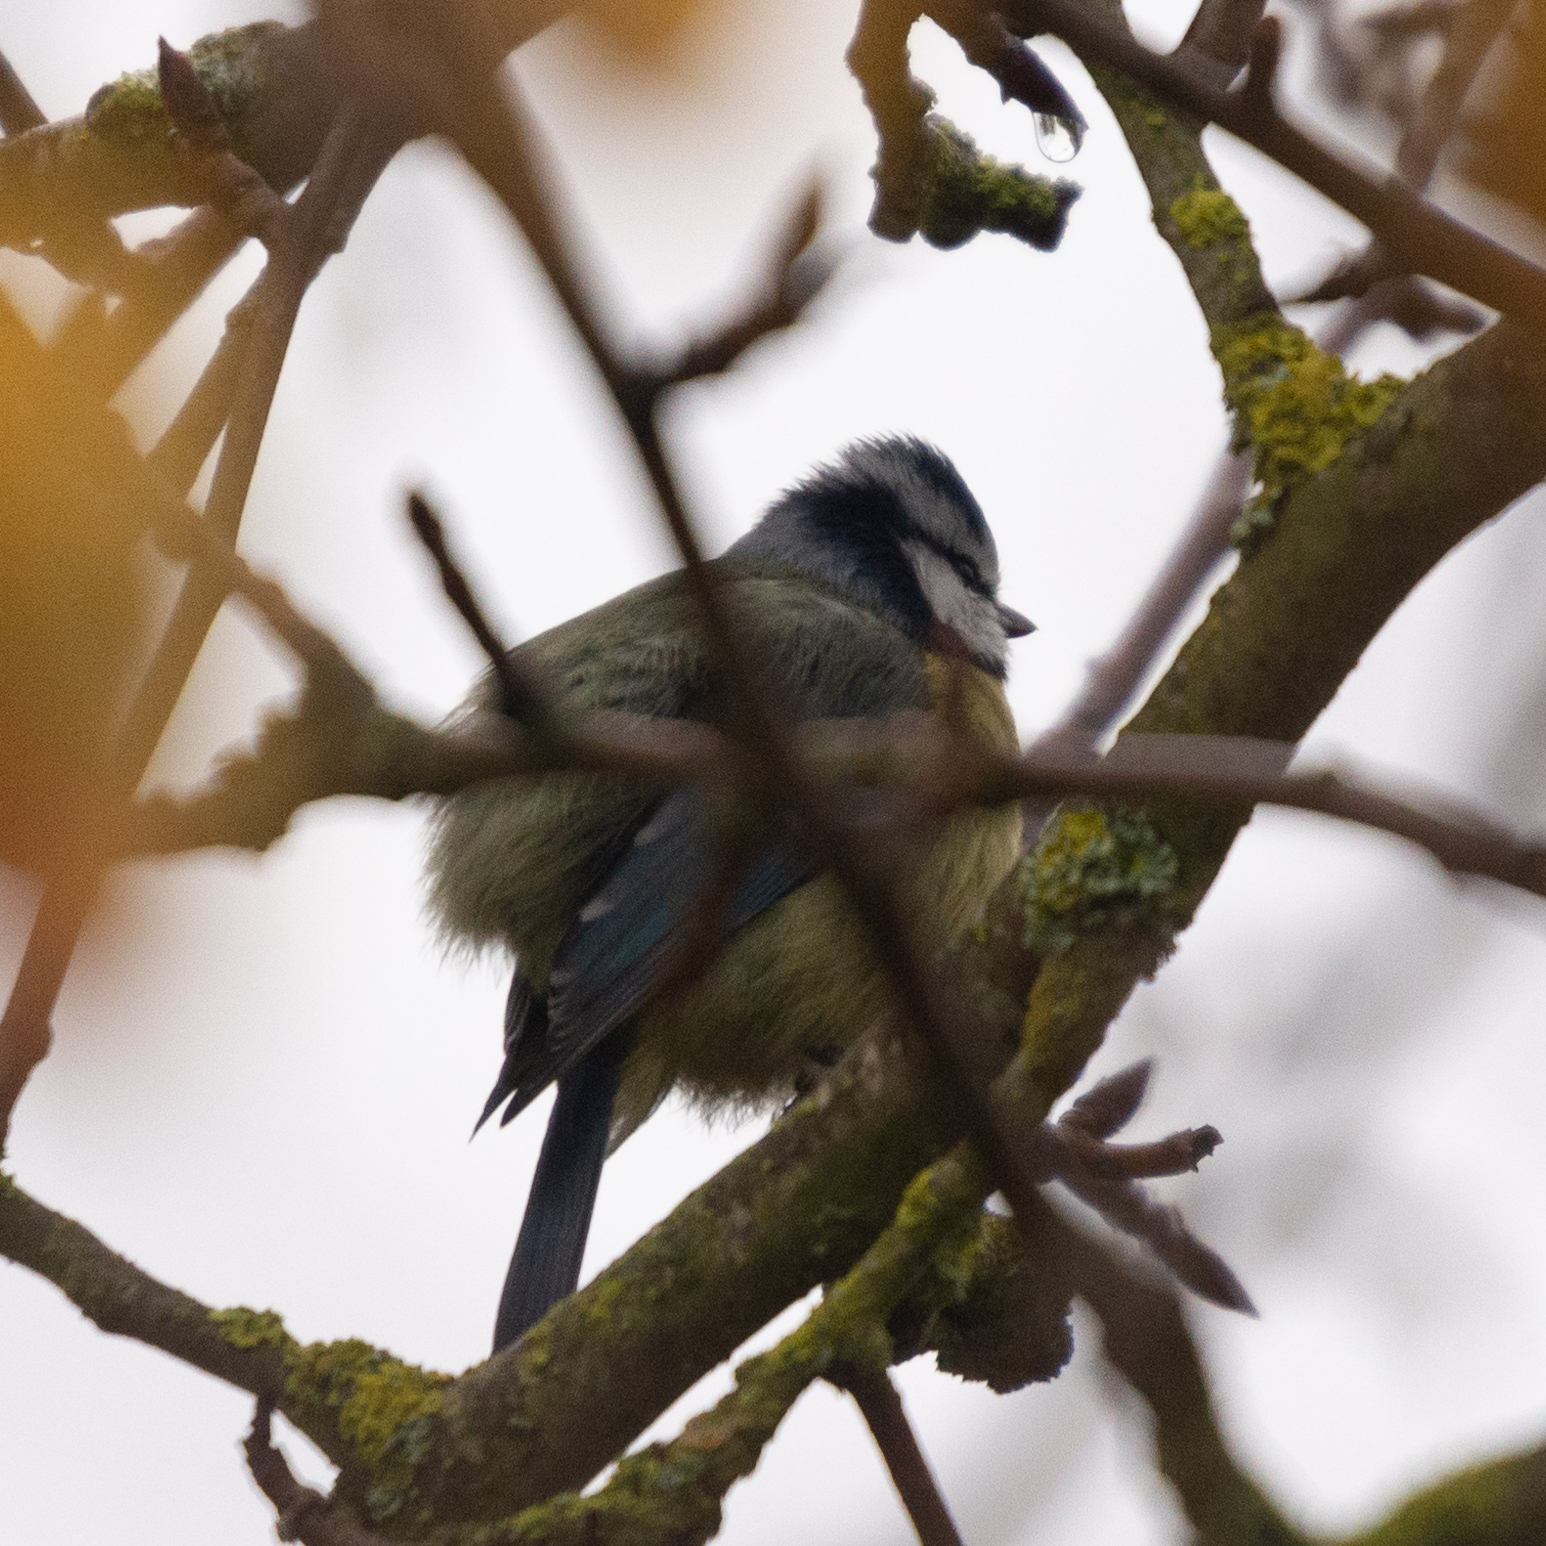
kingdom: Animalia
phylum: Chordata
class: Aves
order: Passeriformes
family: Paridae
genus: Cyanistes
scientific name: Cyanistes caeruleus
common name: Eurasian blue tit
